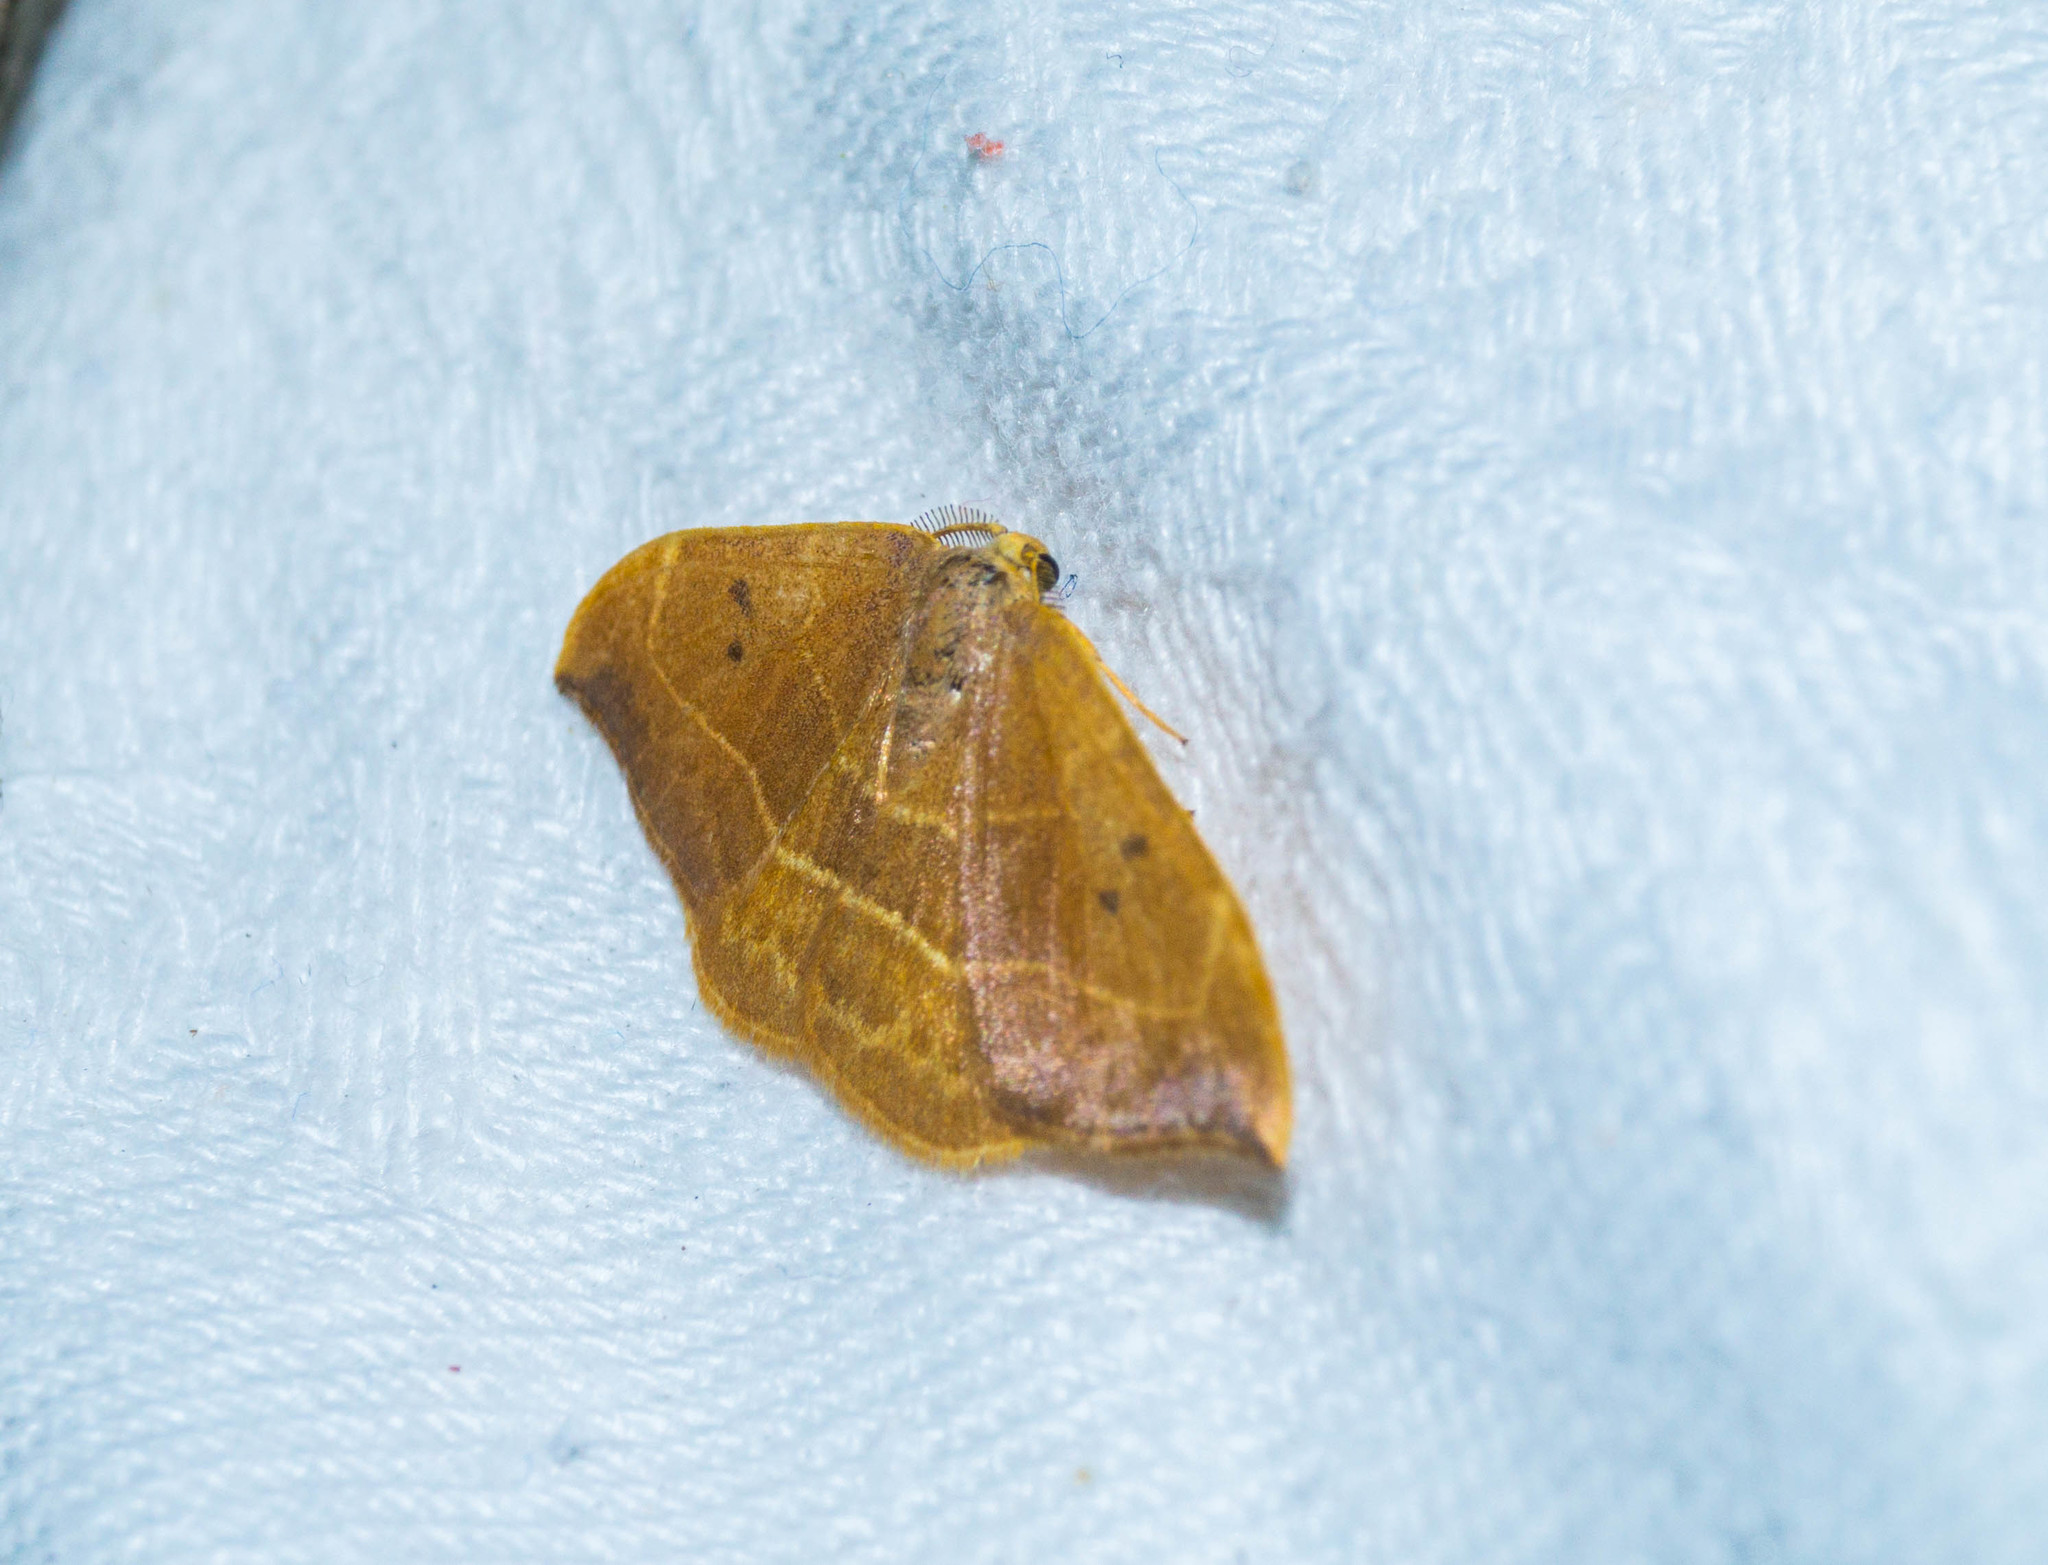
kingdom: Animalia
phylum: Arthropoda
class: Insecta
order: Lepidoptera
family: Drepanidae
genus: Watsonalla
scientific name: Watsonalla binaria
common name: Oak hook-tip
